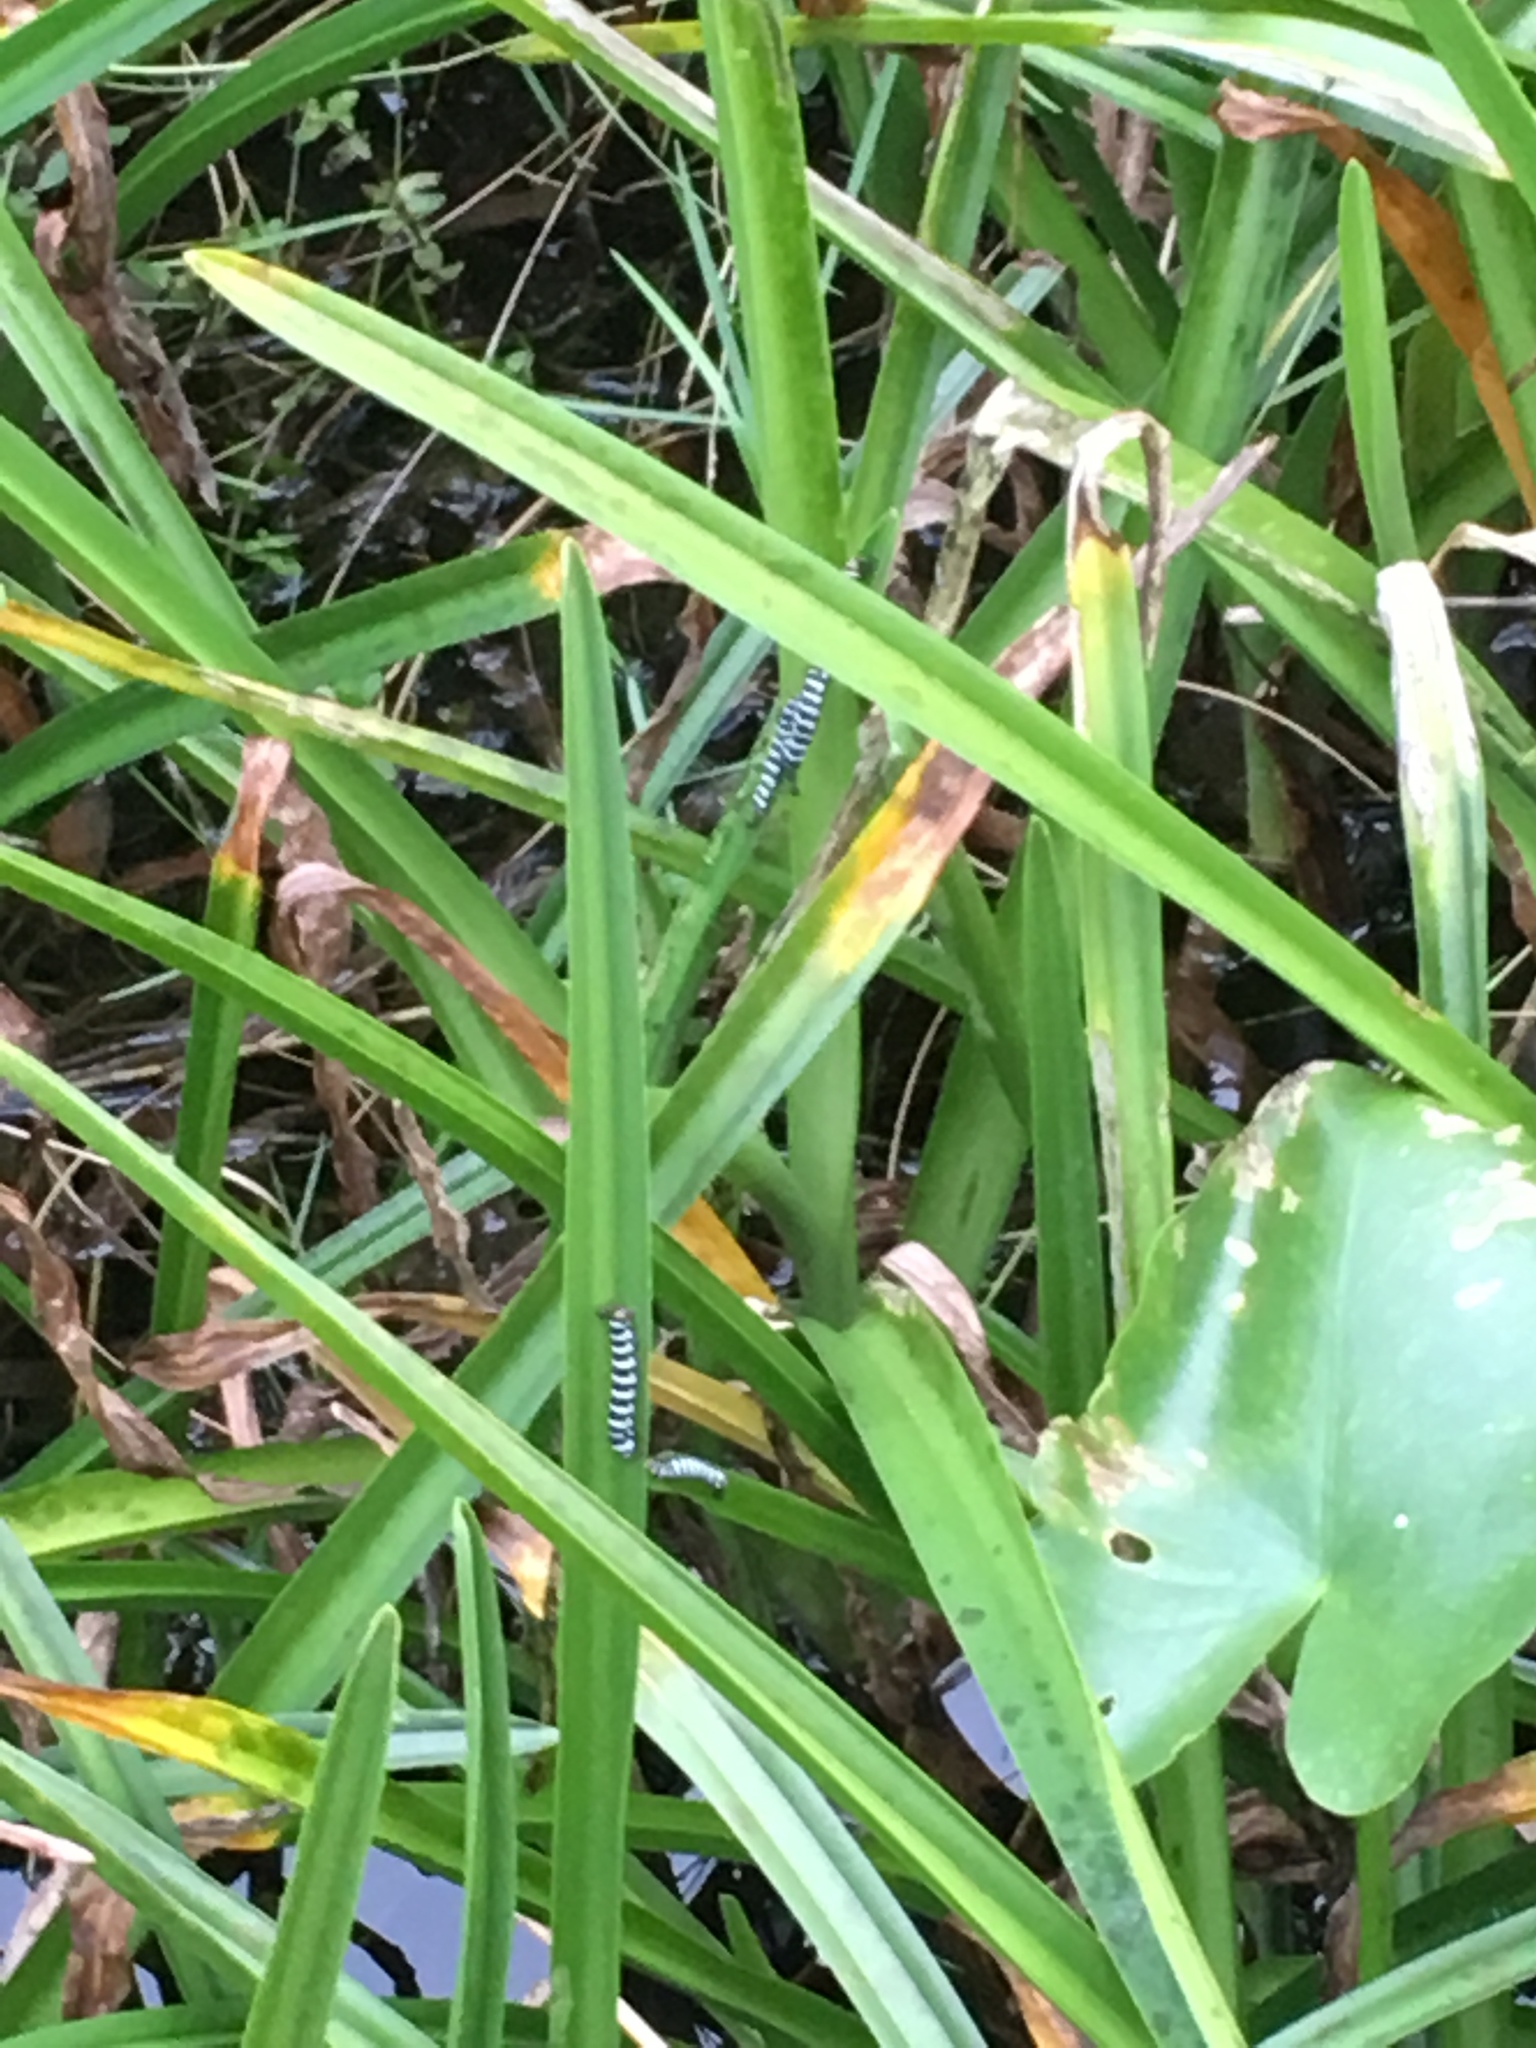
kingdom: Animalia
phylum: Arthropoda
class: Insecta
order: Lepidoptera
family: Noctuidae
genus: Xanthopastis
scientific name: Xanthopastis regnatrix
